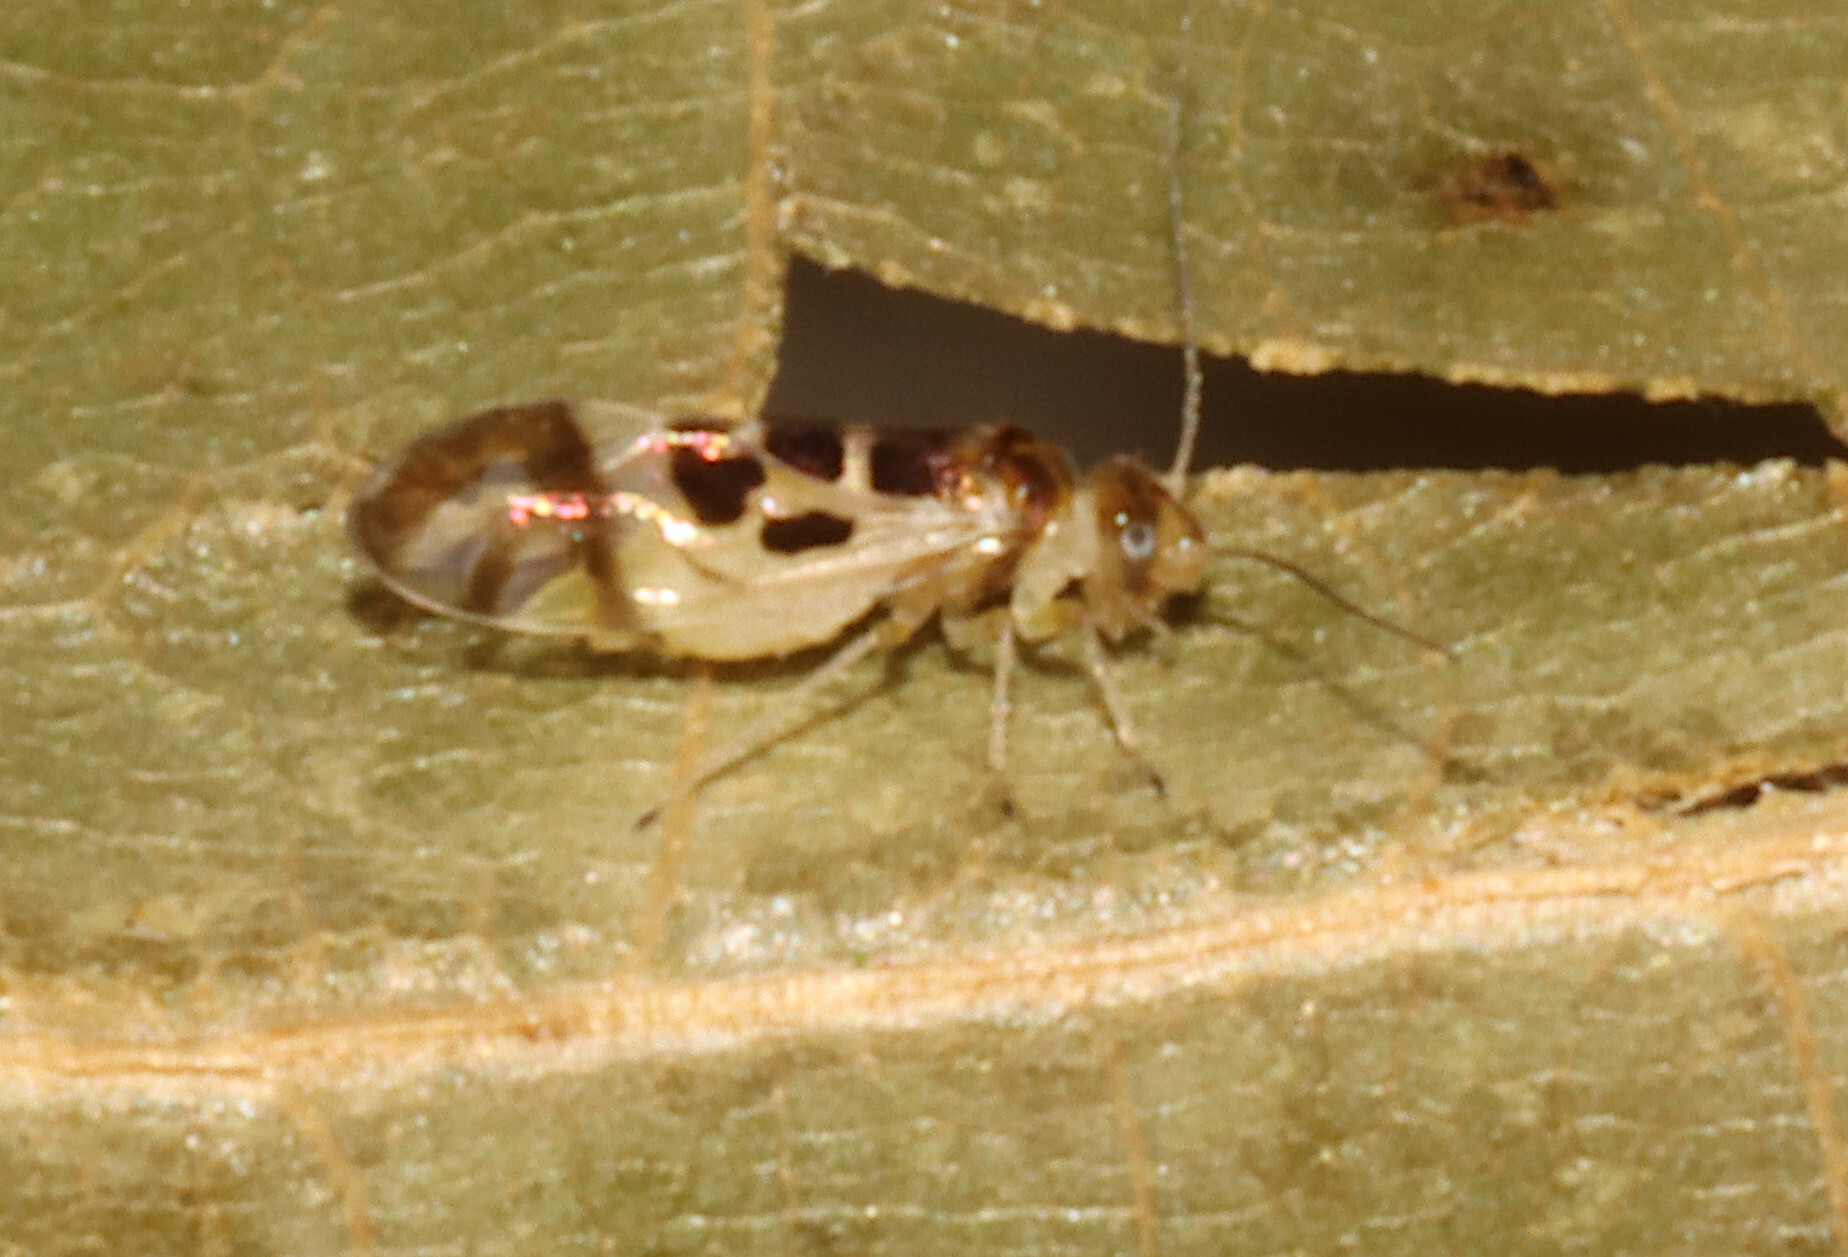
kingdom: Animalia
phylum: Arthropoda
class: Insecta
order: Psocodea
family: Stenopsocidae
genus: Graphopsocus
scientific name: Graphopsocus cruciatus
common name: Lizard bark louse
